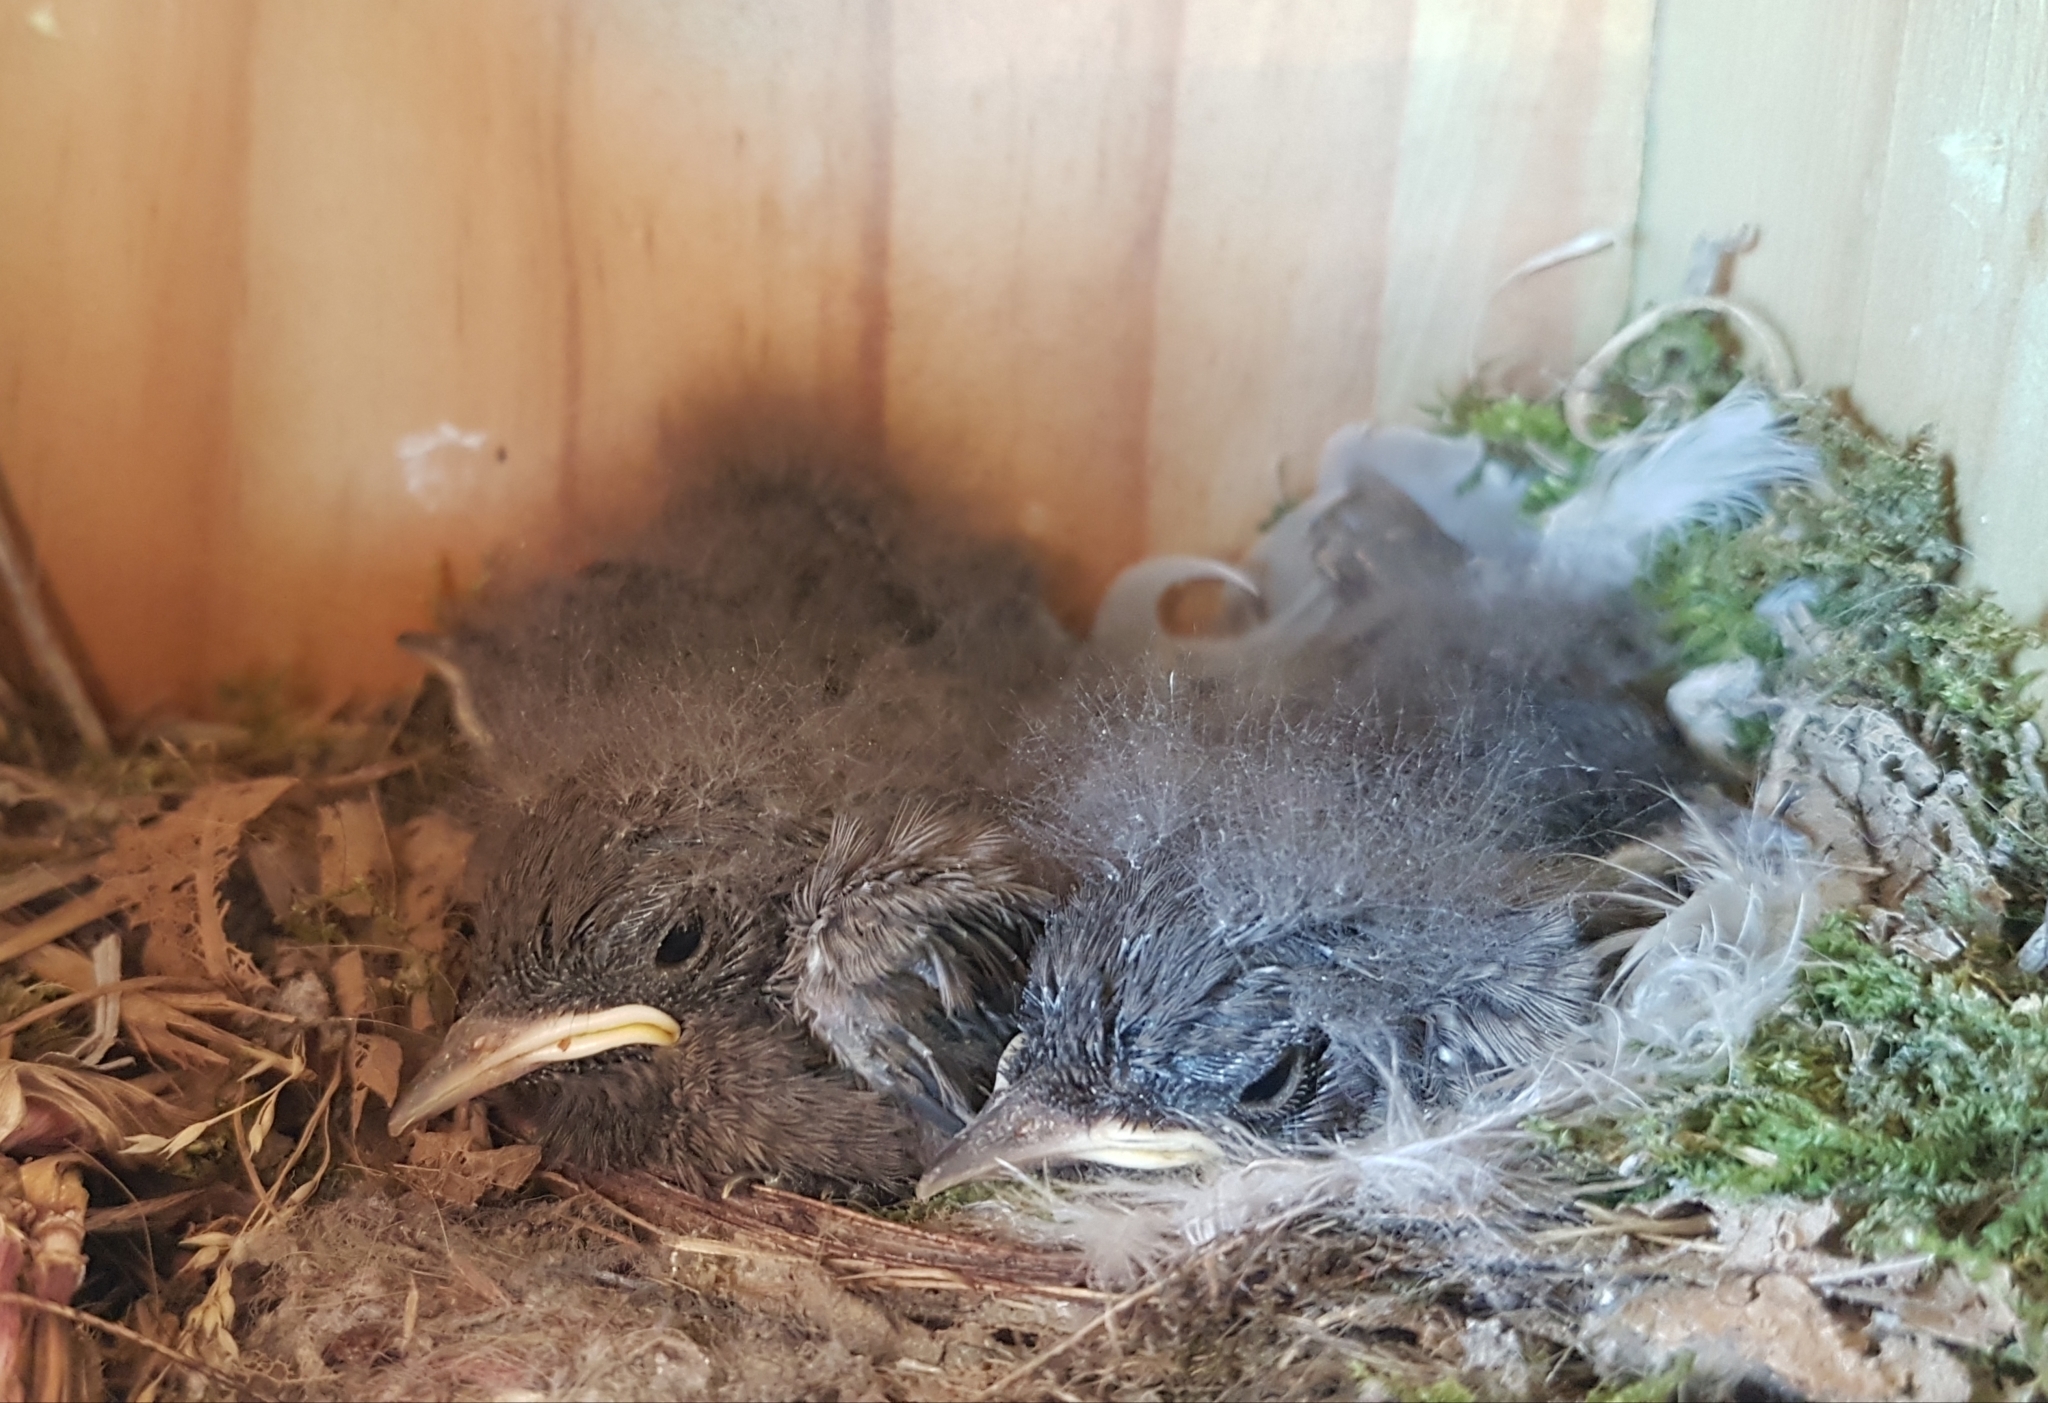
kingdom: Animalia
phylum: Chordata
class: Aves
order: Passeriformes
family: Muscicapidae
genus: Phoenicurus
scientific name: Phoenicurus ochruros
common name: Black redstart
